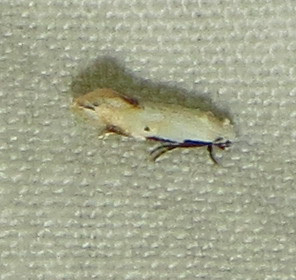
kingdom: Animalia
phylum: Arthropoda
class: Insecta
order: Lepidoptera
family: Meessiidae
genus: Mea
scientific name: Mea skinnerella
